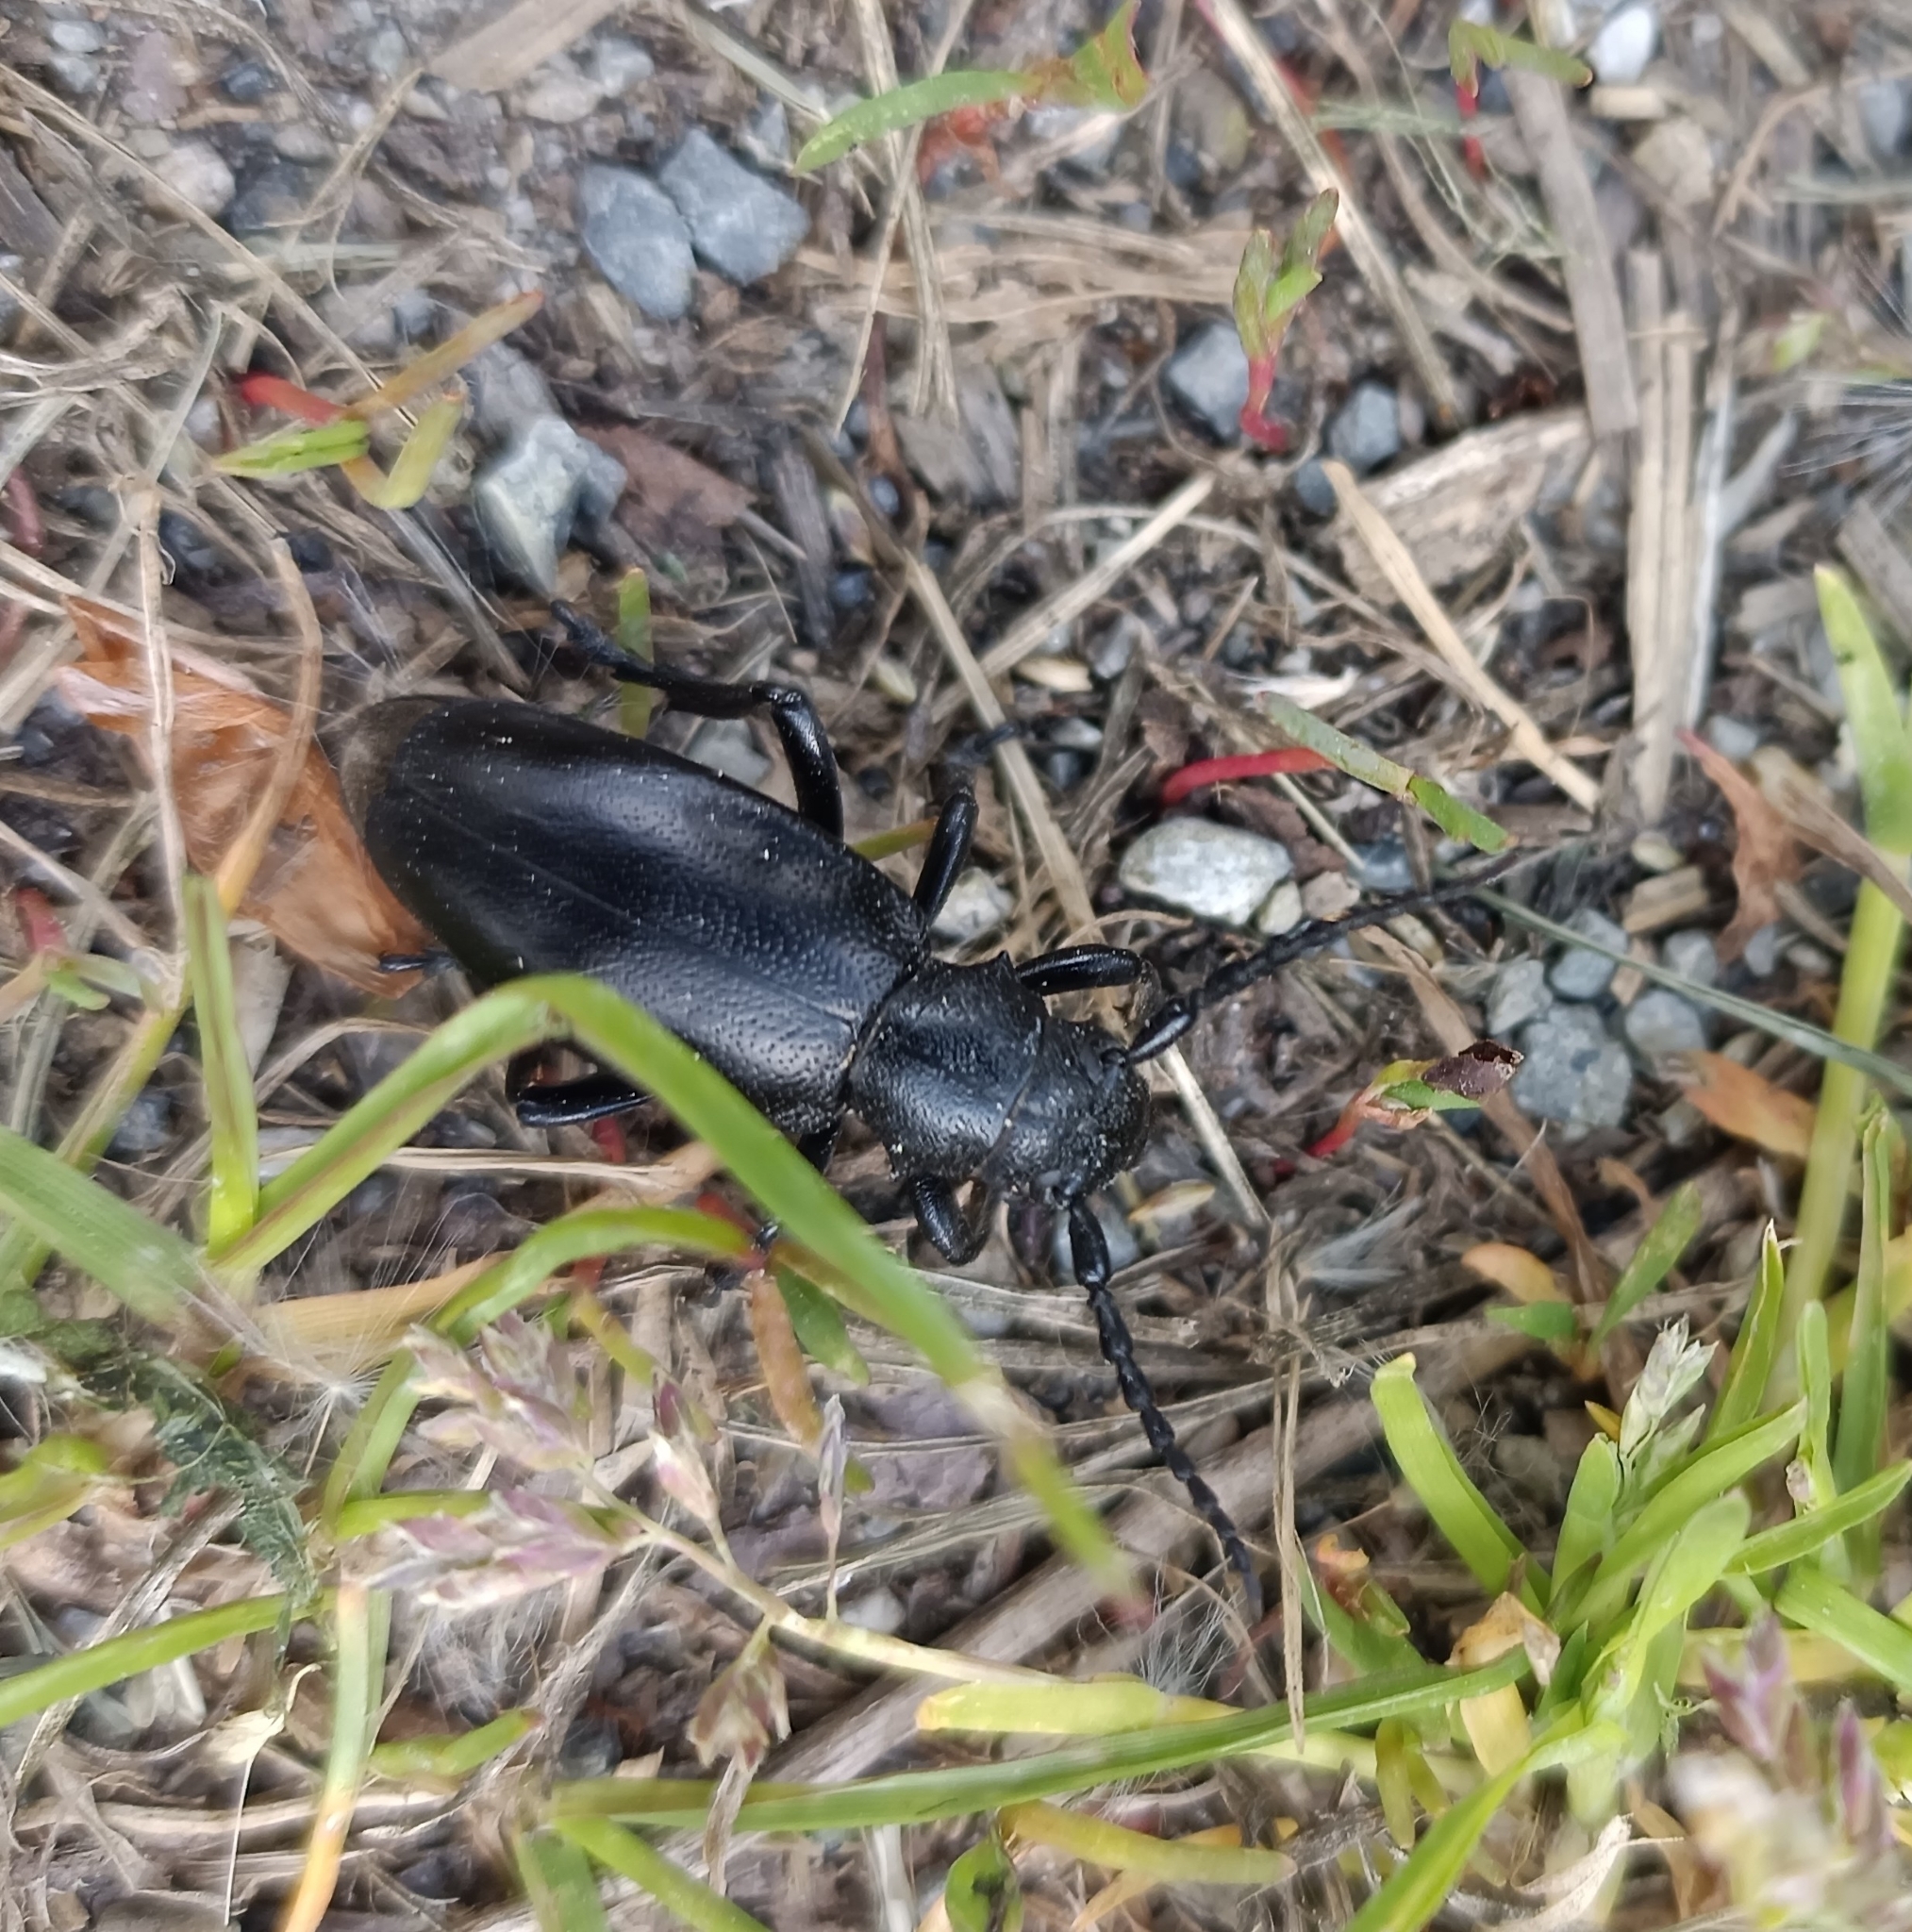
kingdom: Animalia
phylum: Arthropoda
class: Insecta
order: Coleoptera
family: Cerambycidae
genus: Dorcadion
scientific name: Dorcadion aethiops
